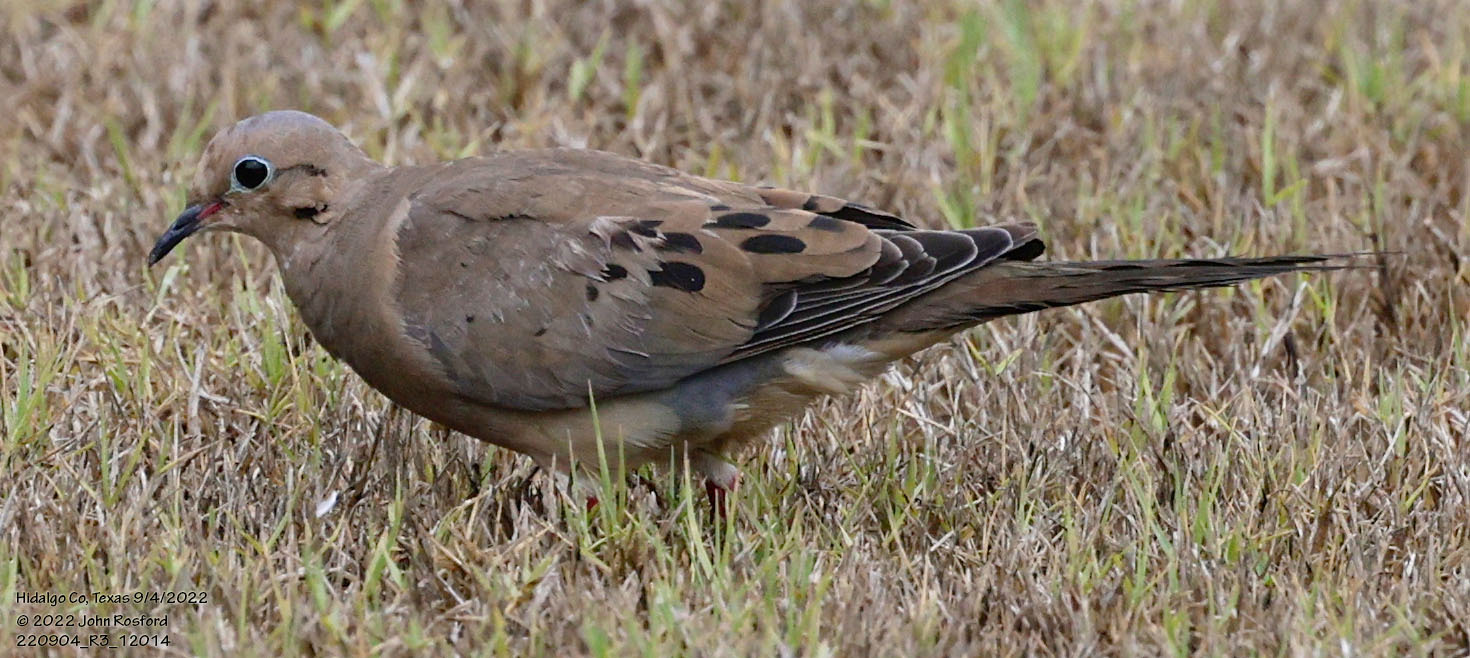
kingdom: Animalia
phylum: Chordata
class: Aves
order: Columbiformes
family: Columbidae
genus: Zenaida
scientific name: Zenaida macroura
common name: Mourning dove
